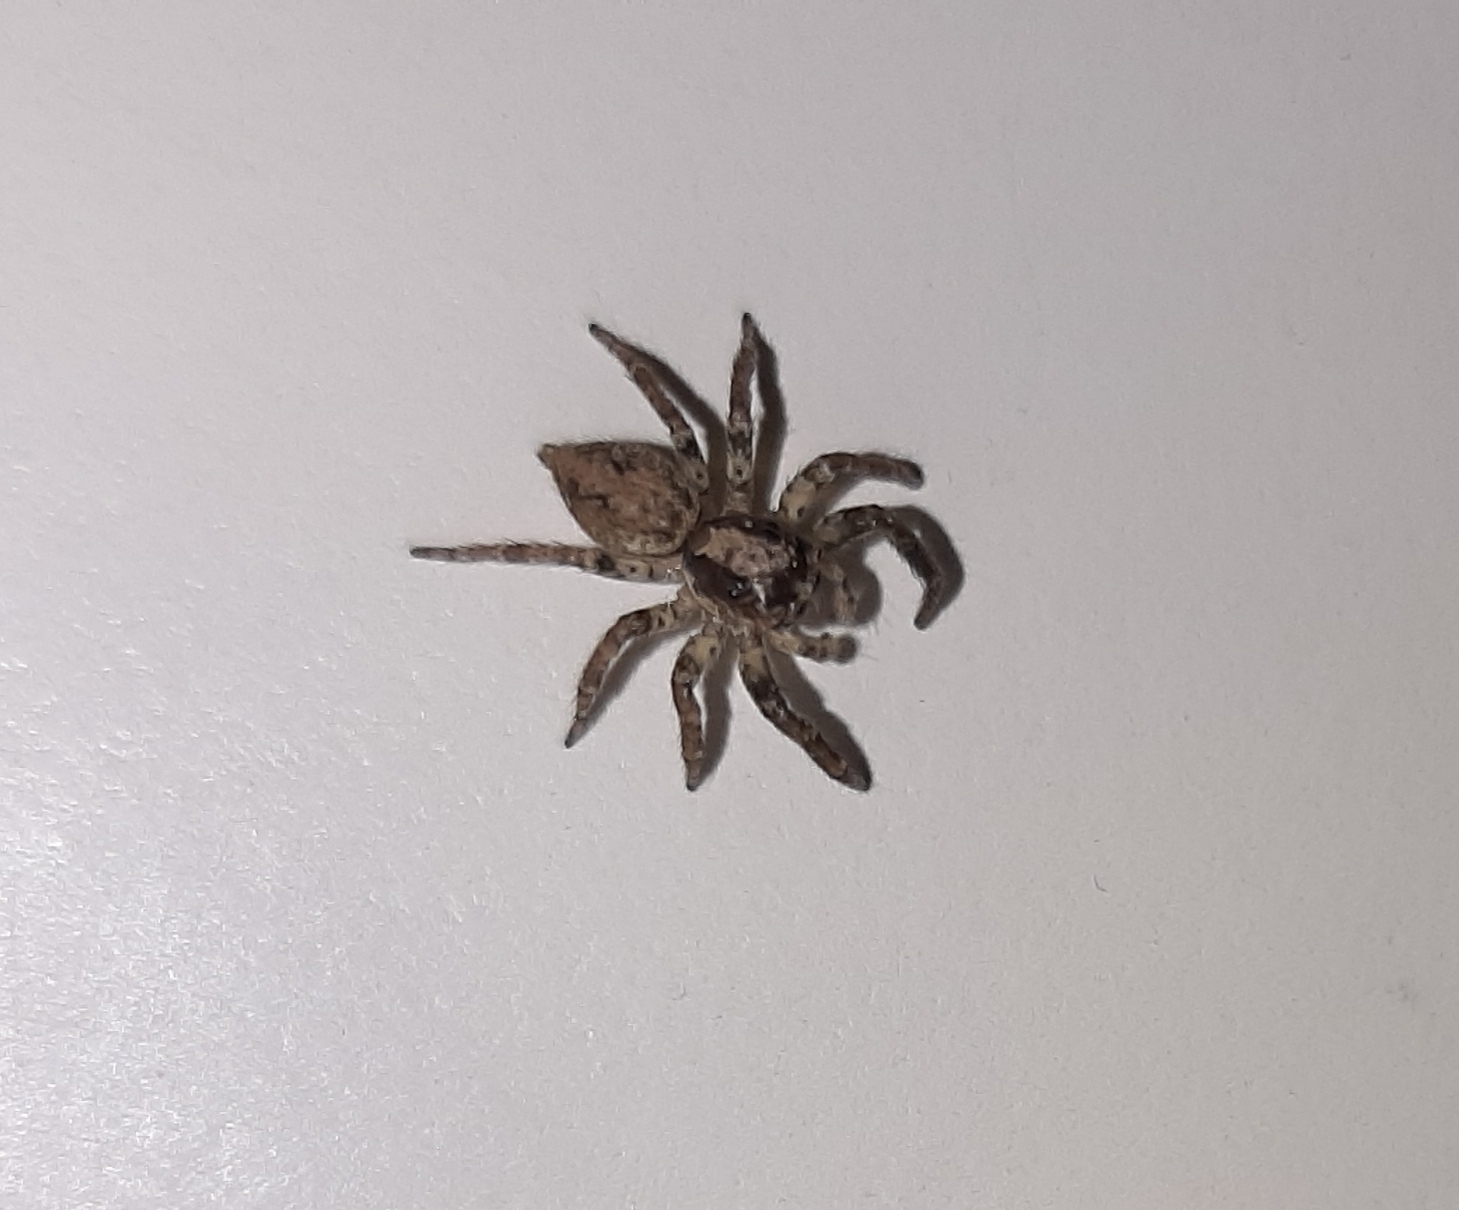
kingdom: Animalia
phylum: Arthropoda
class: Arachnida
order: Araneae
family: Salticidae
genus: Coryphasia
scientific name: Coryphasia albibarbis
